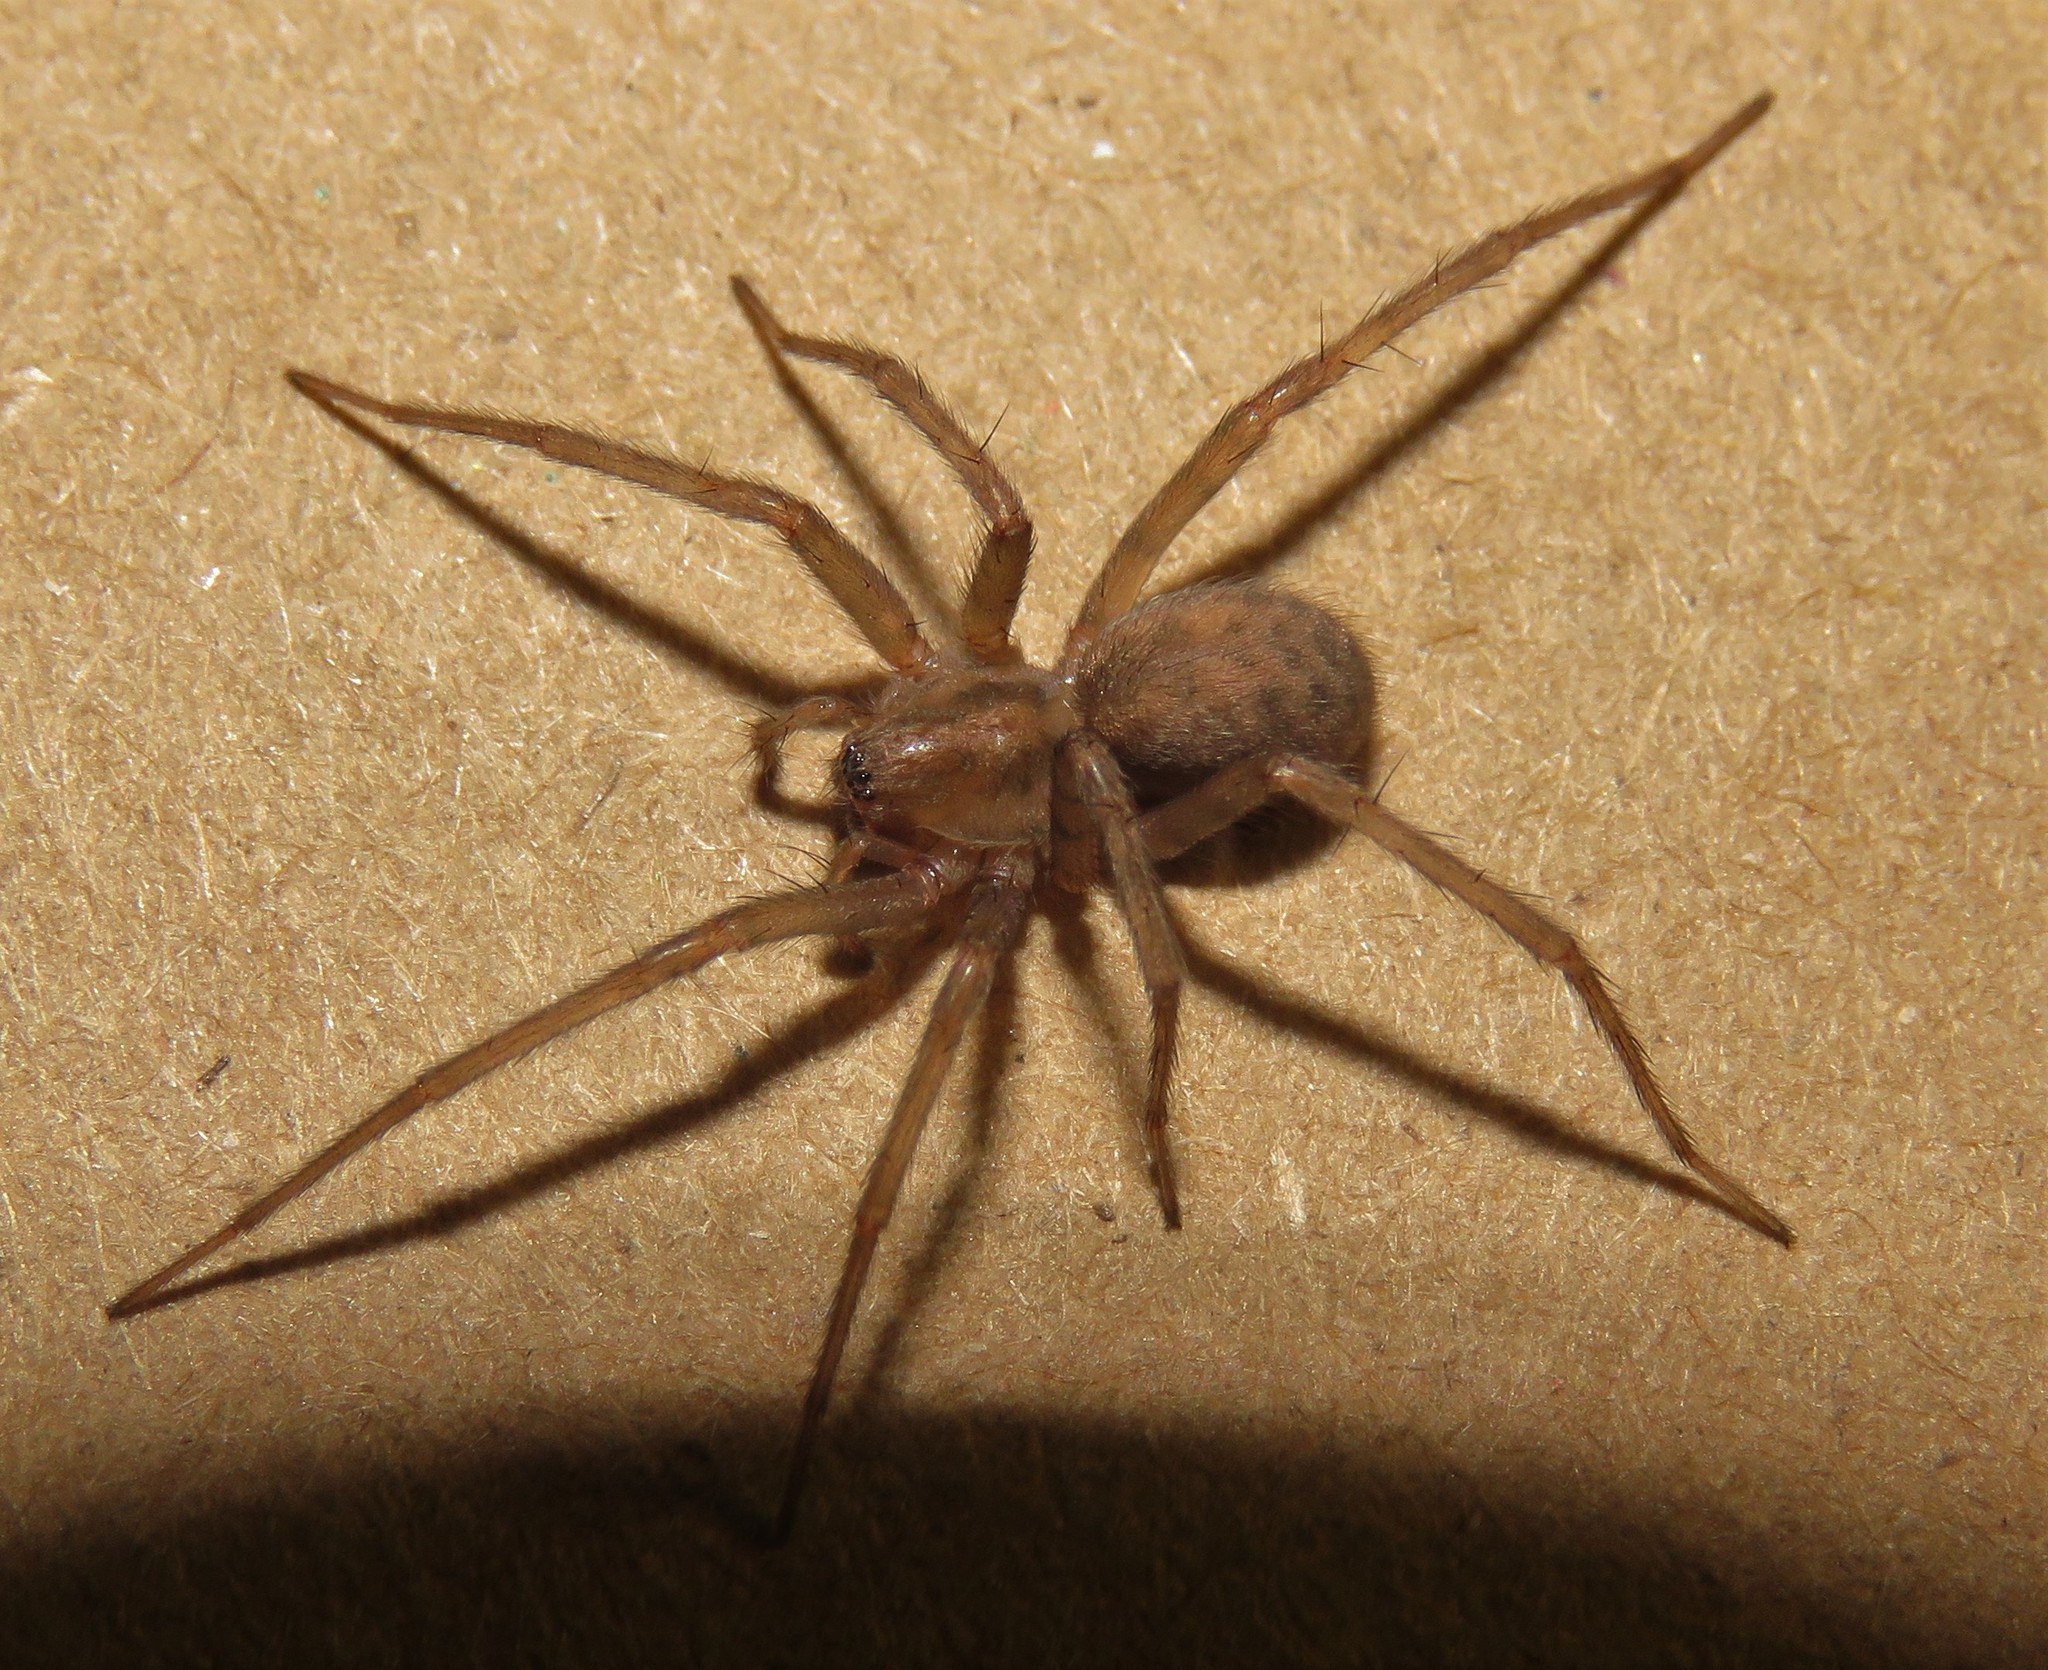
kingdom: Animalia
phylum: Arthropoda
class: Arachnida
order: Araneae
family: Agelenidae
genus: Tegenaria
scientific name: Tegenaria domestica
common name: Barn funnel weaver
